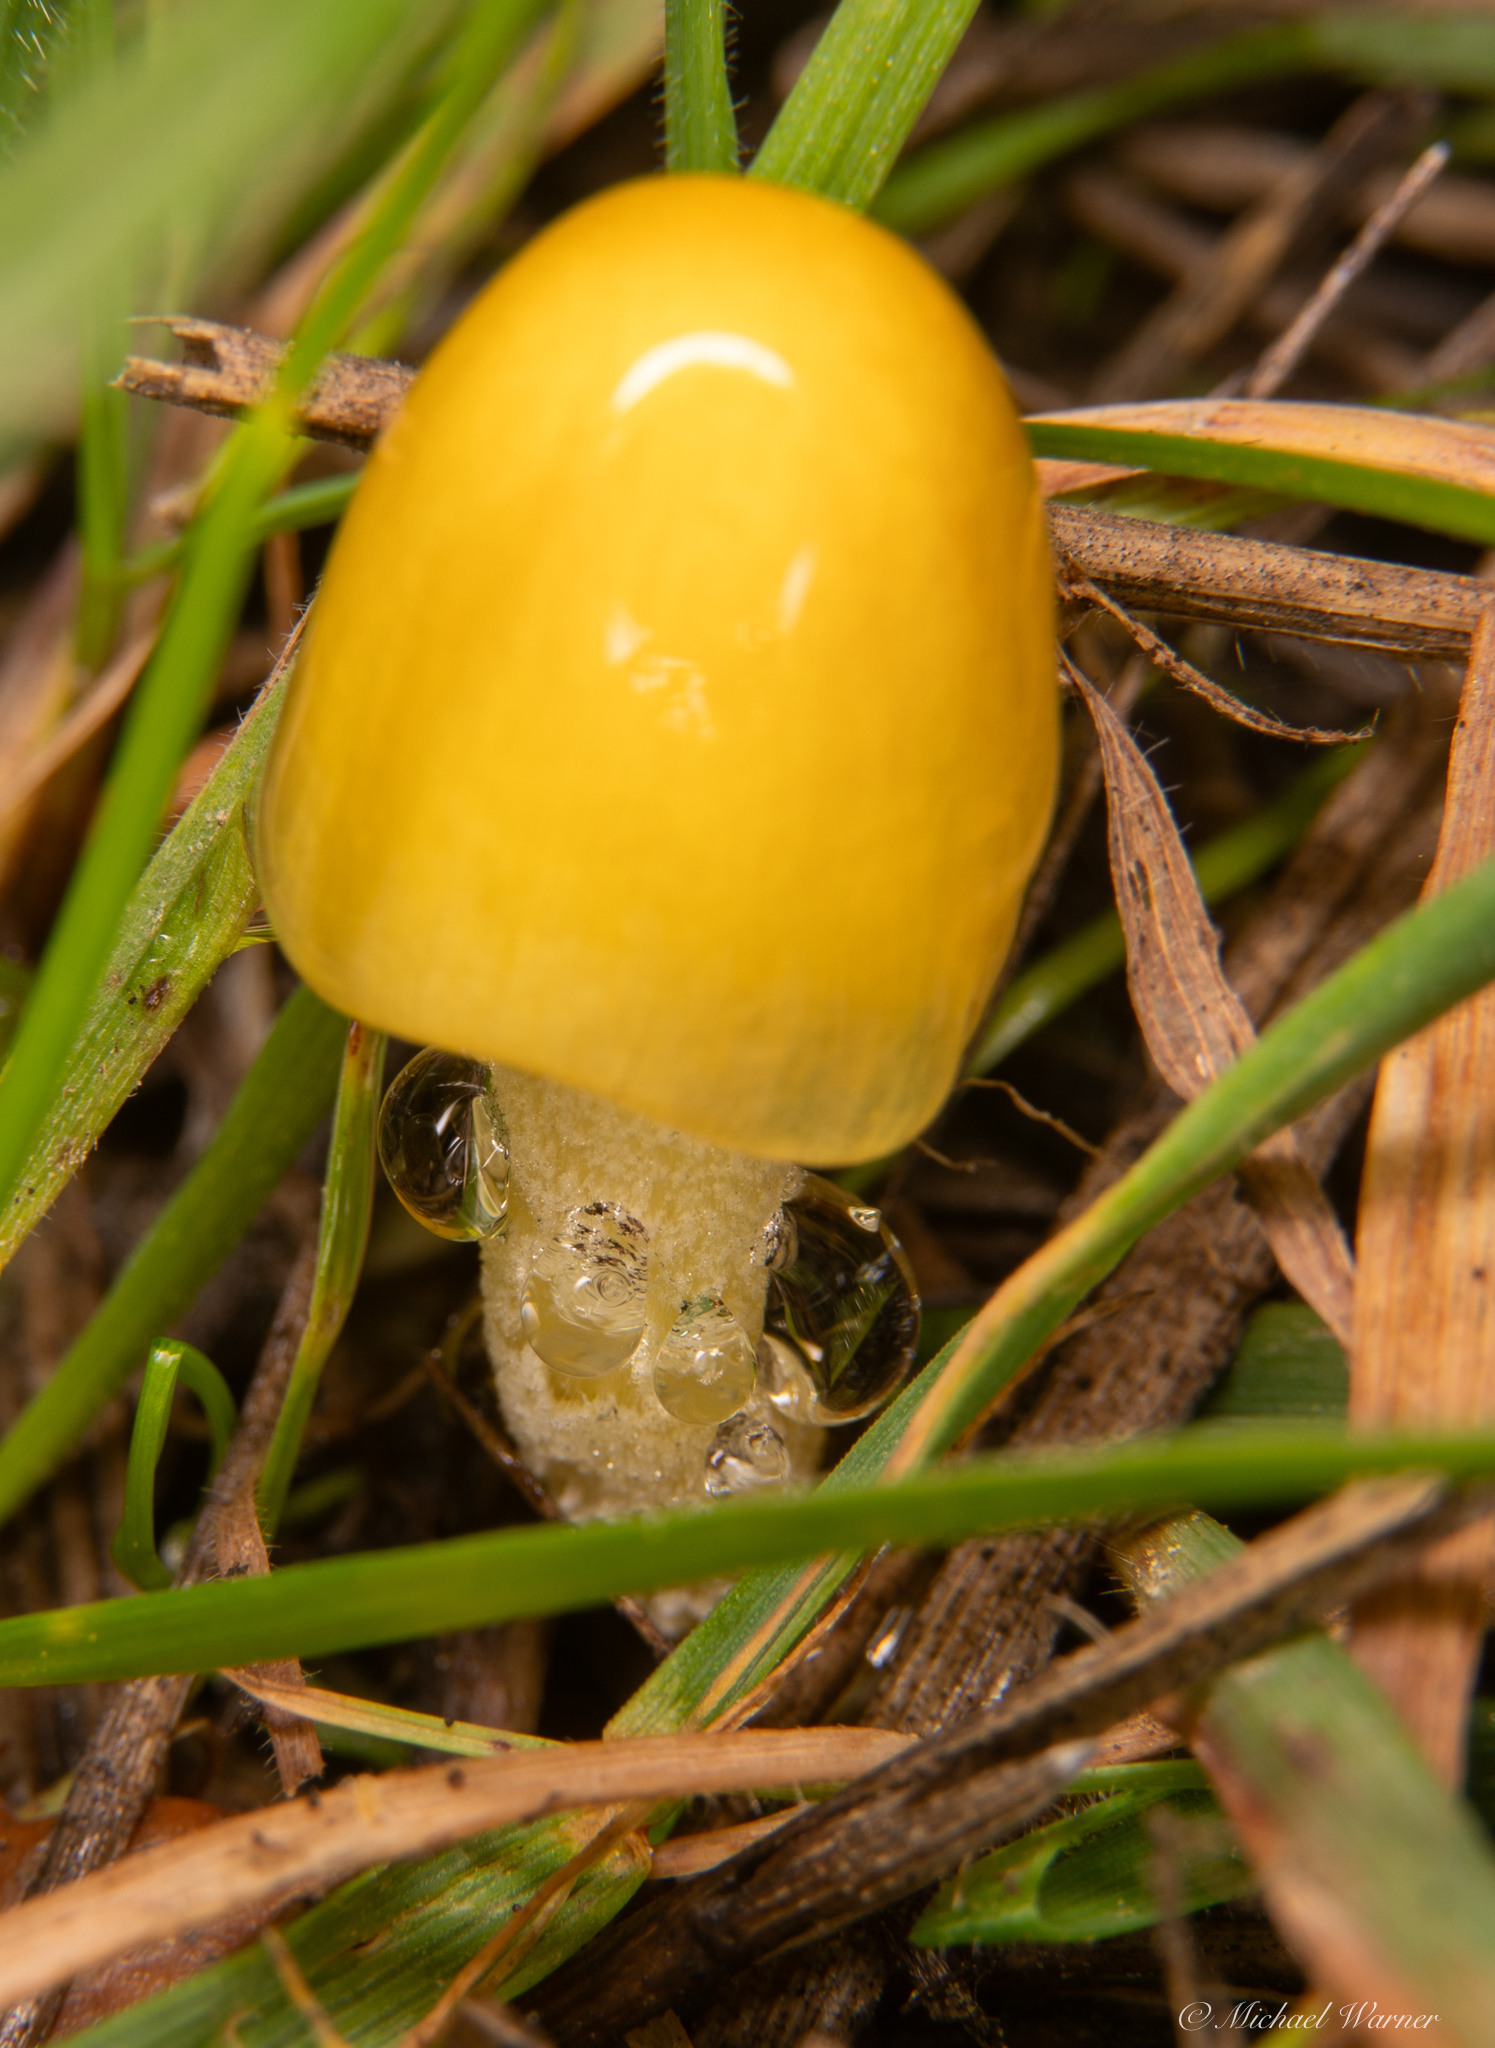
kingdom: Fungi
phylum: Basidiomycota
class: Agaricomycetes
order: Agaricales
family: Bolbitiaceae
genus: Bolbitius
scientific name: Bolbitius titubans
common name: Yellow fieldcap
